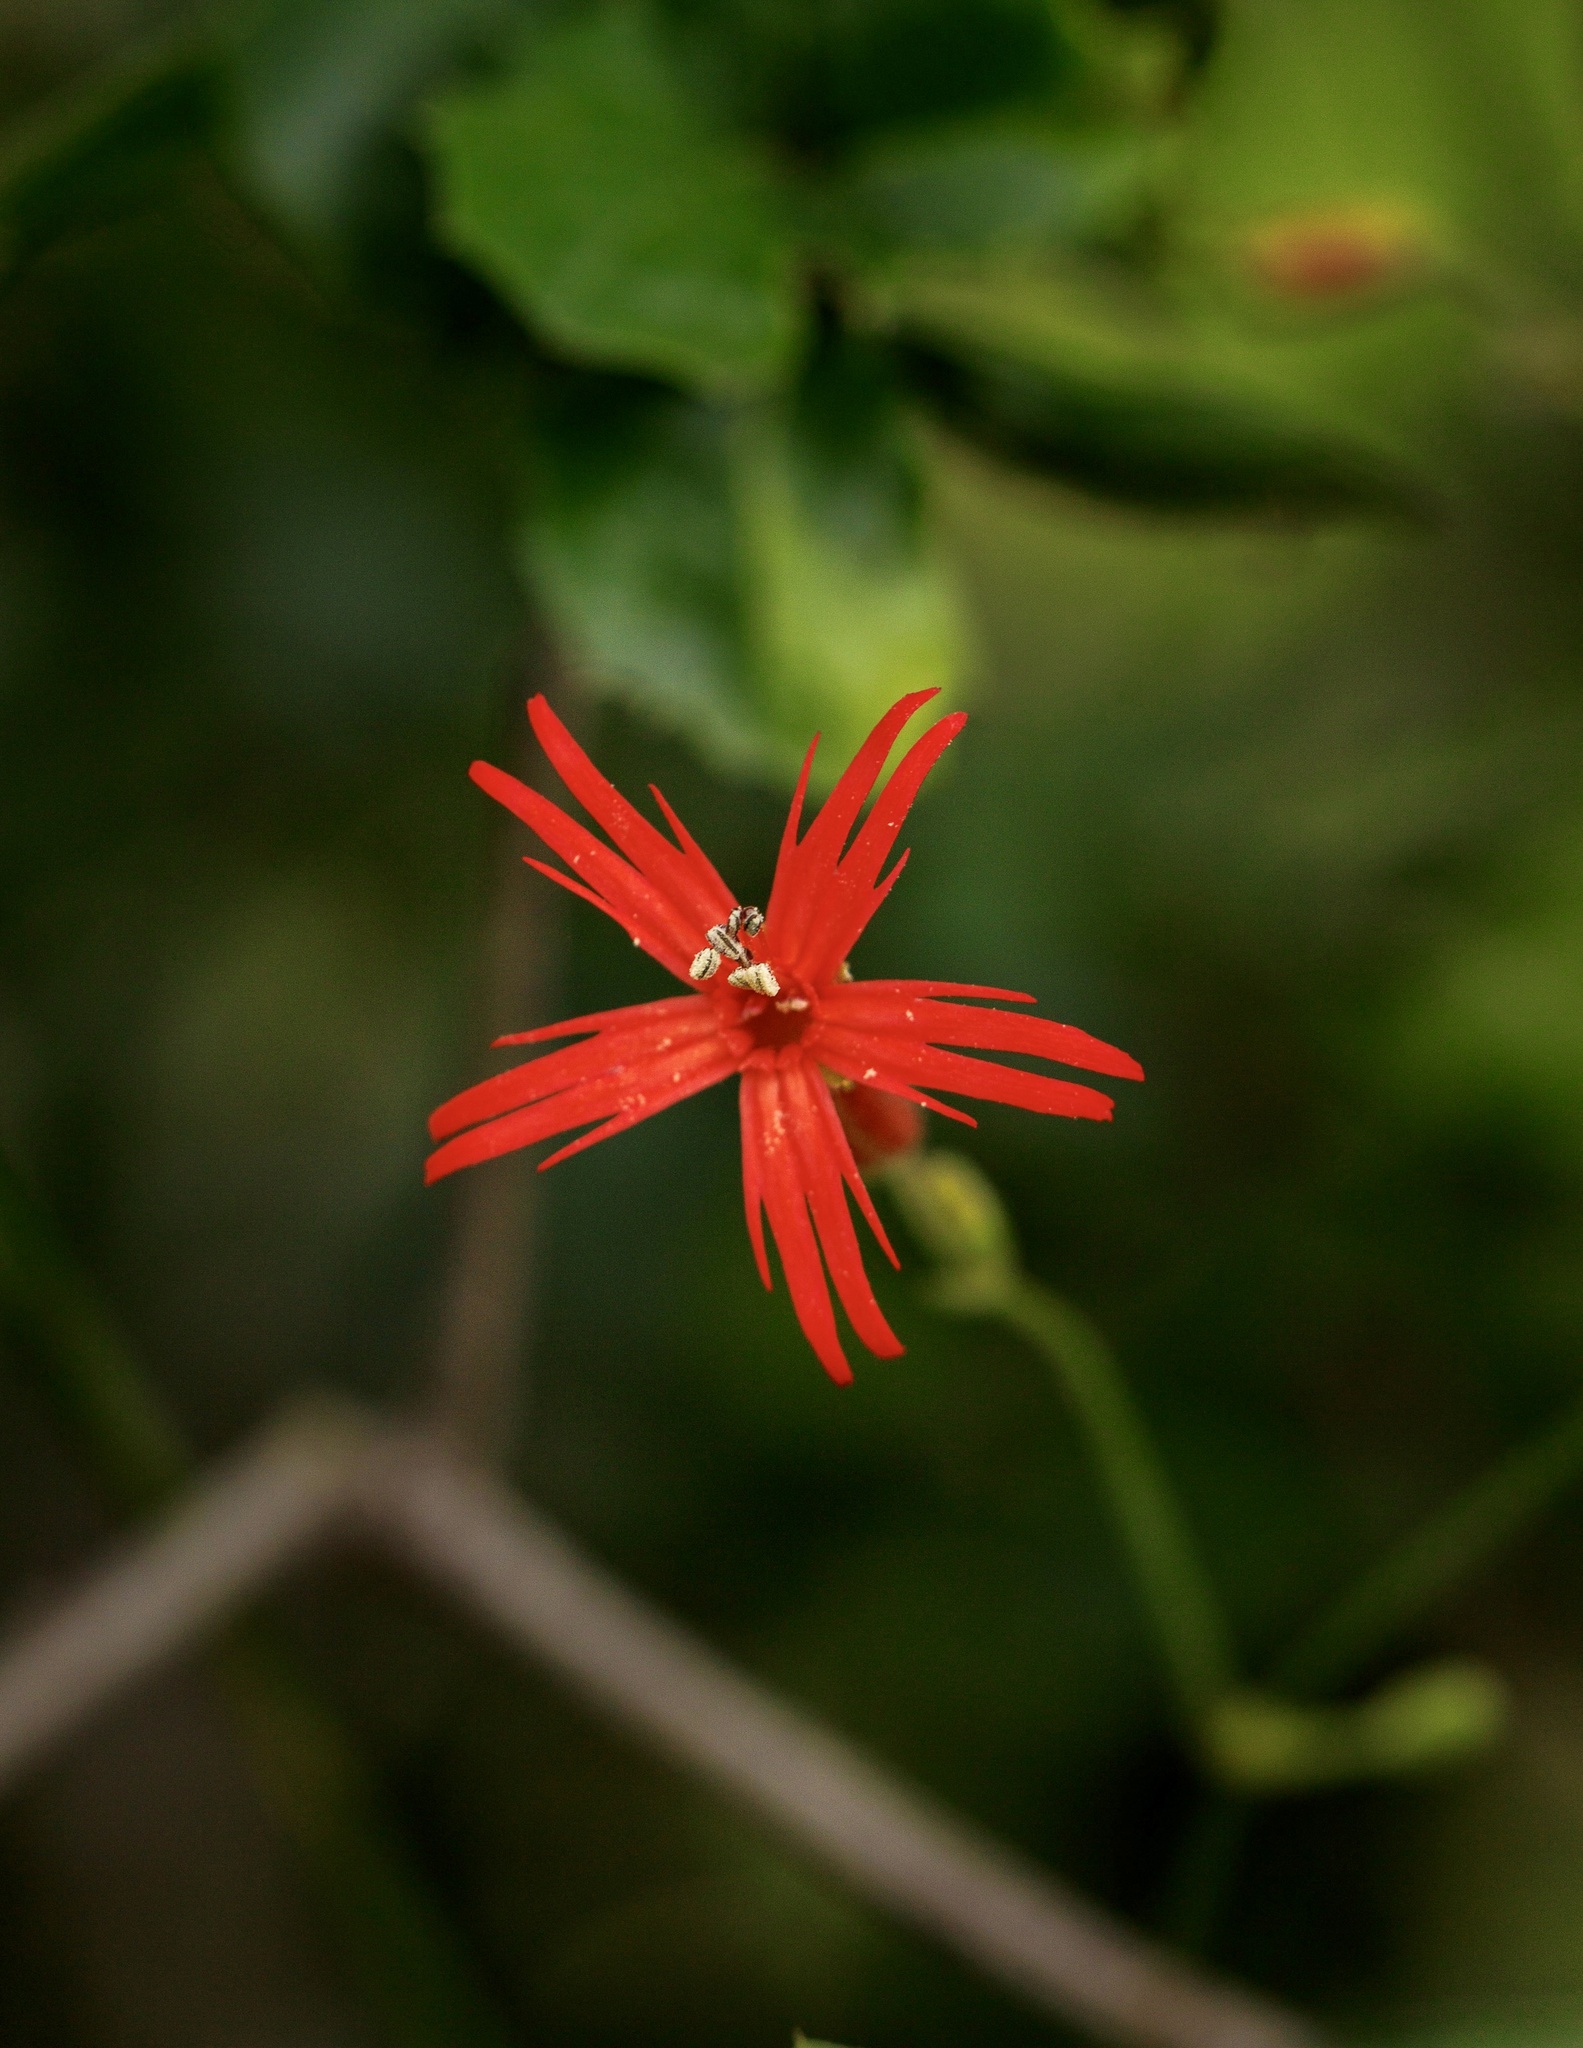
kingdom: Plantae
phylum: Tracheophyta
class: Magnoliopsida
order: Caryophyllales
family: Caryophyllaceae
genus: Silene
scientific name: Silene laciniata
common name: Indian-pink
